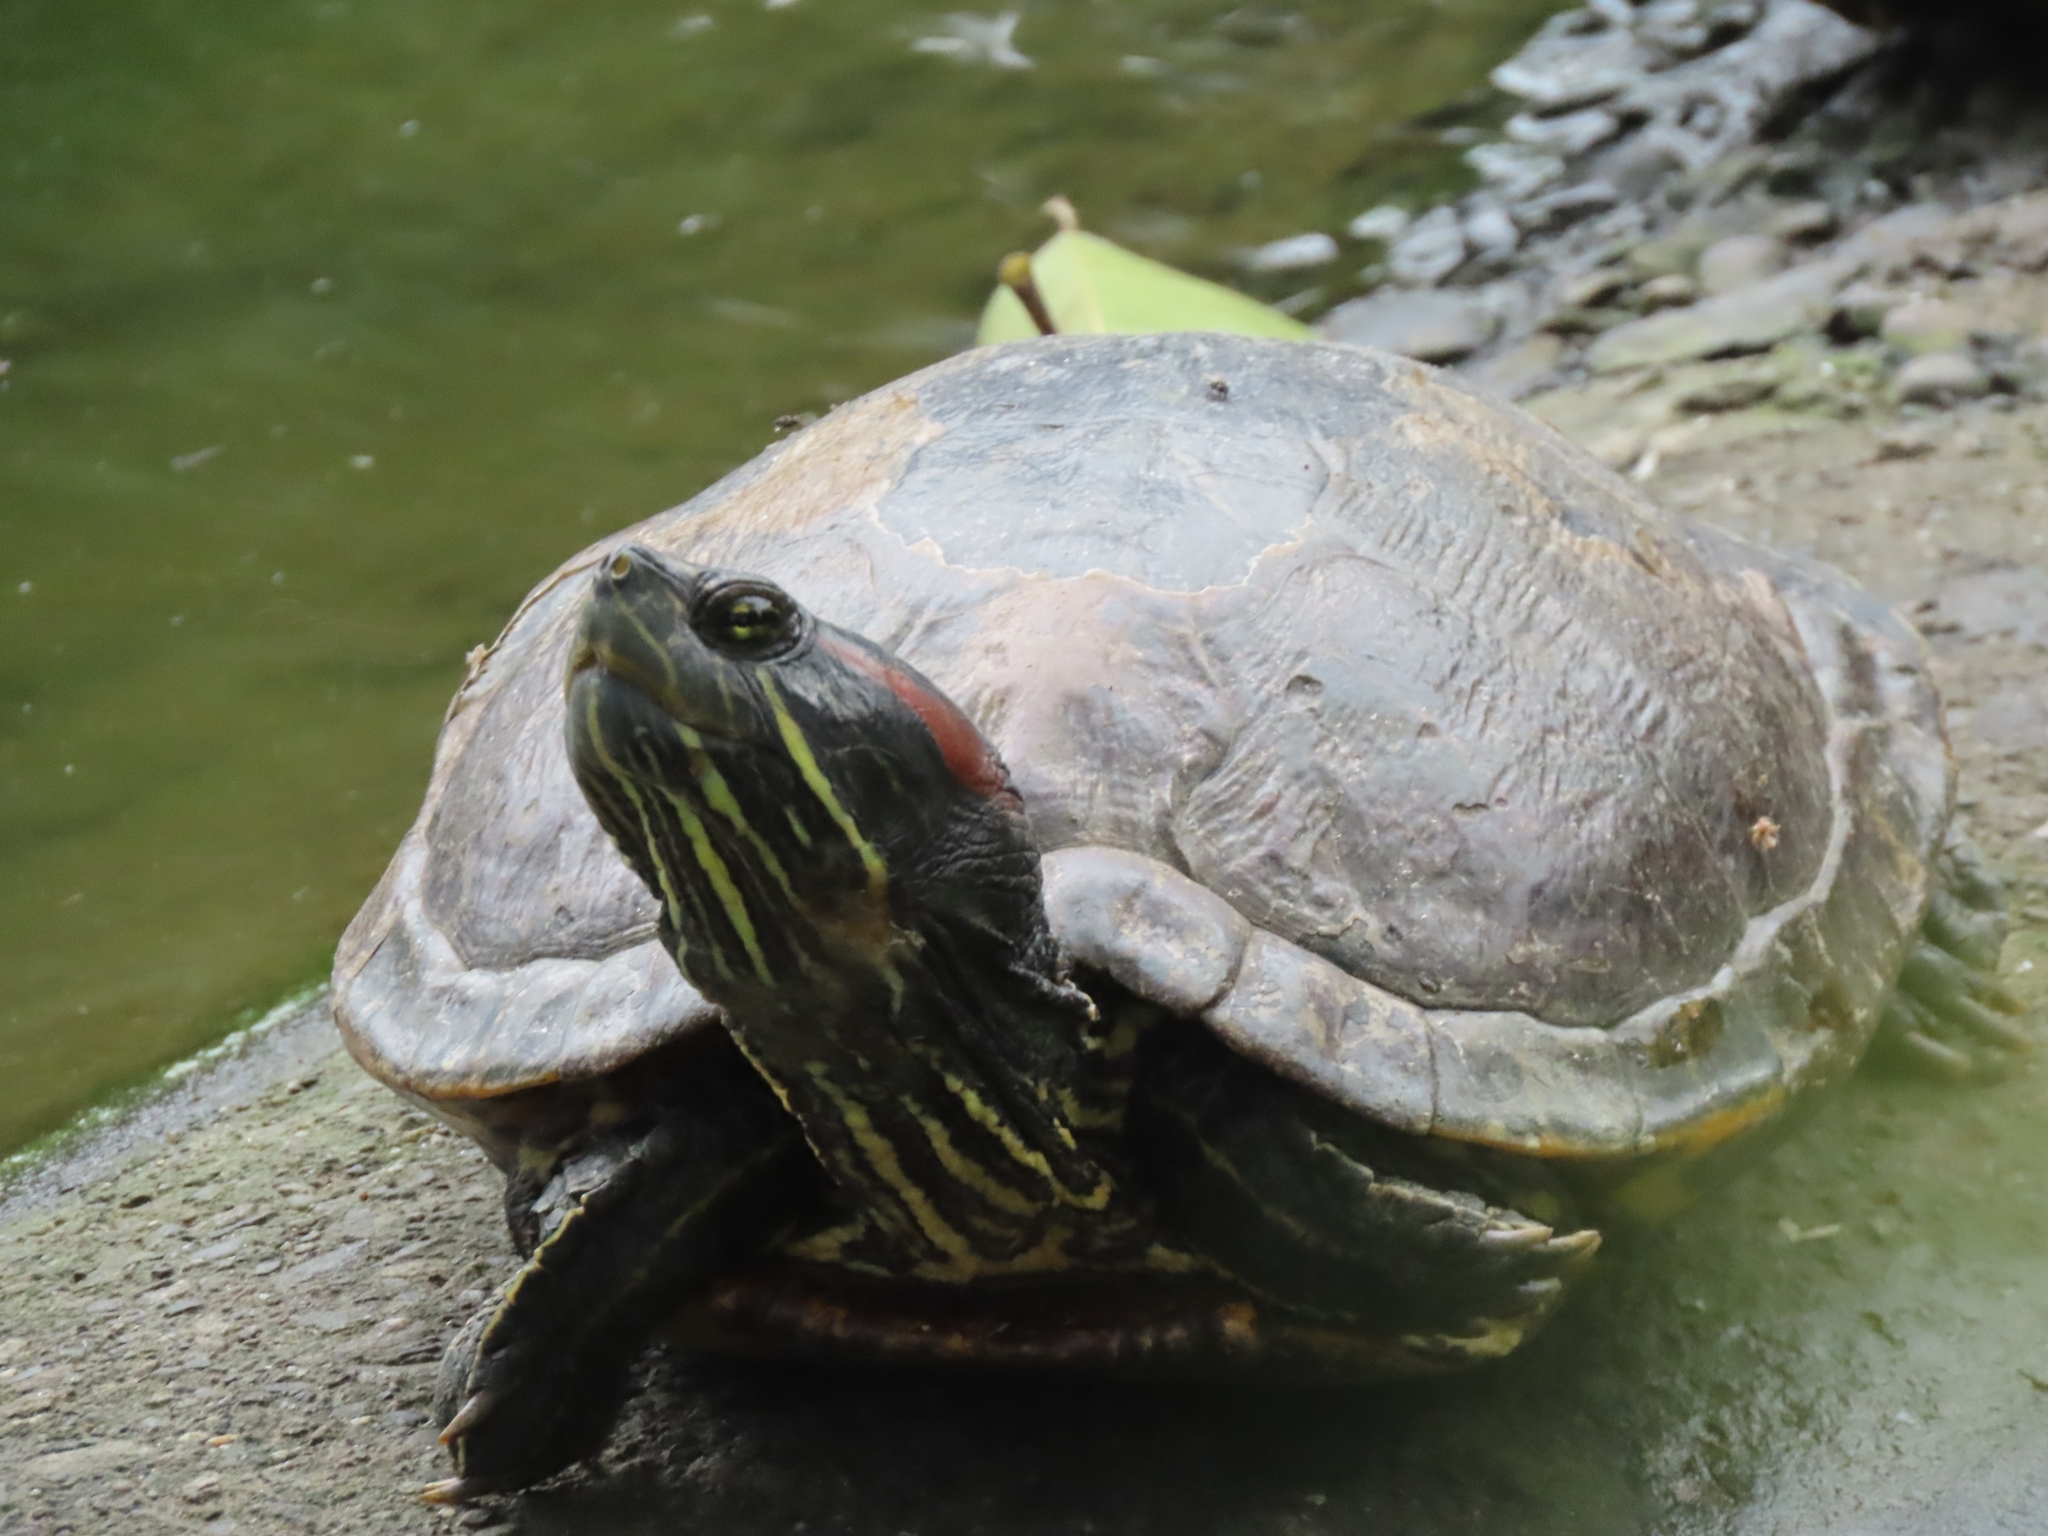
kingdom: Animalia
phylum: Chordata
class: Testudines
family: Emydidae
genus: Trachemys
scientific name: Trachemys scripta
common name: Slider
